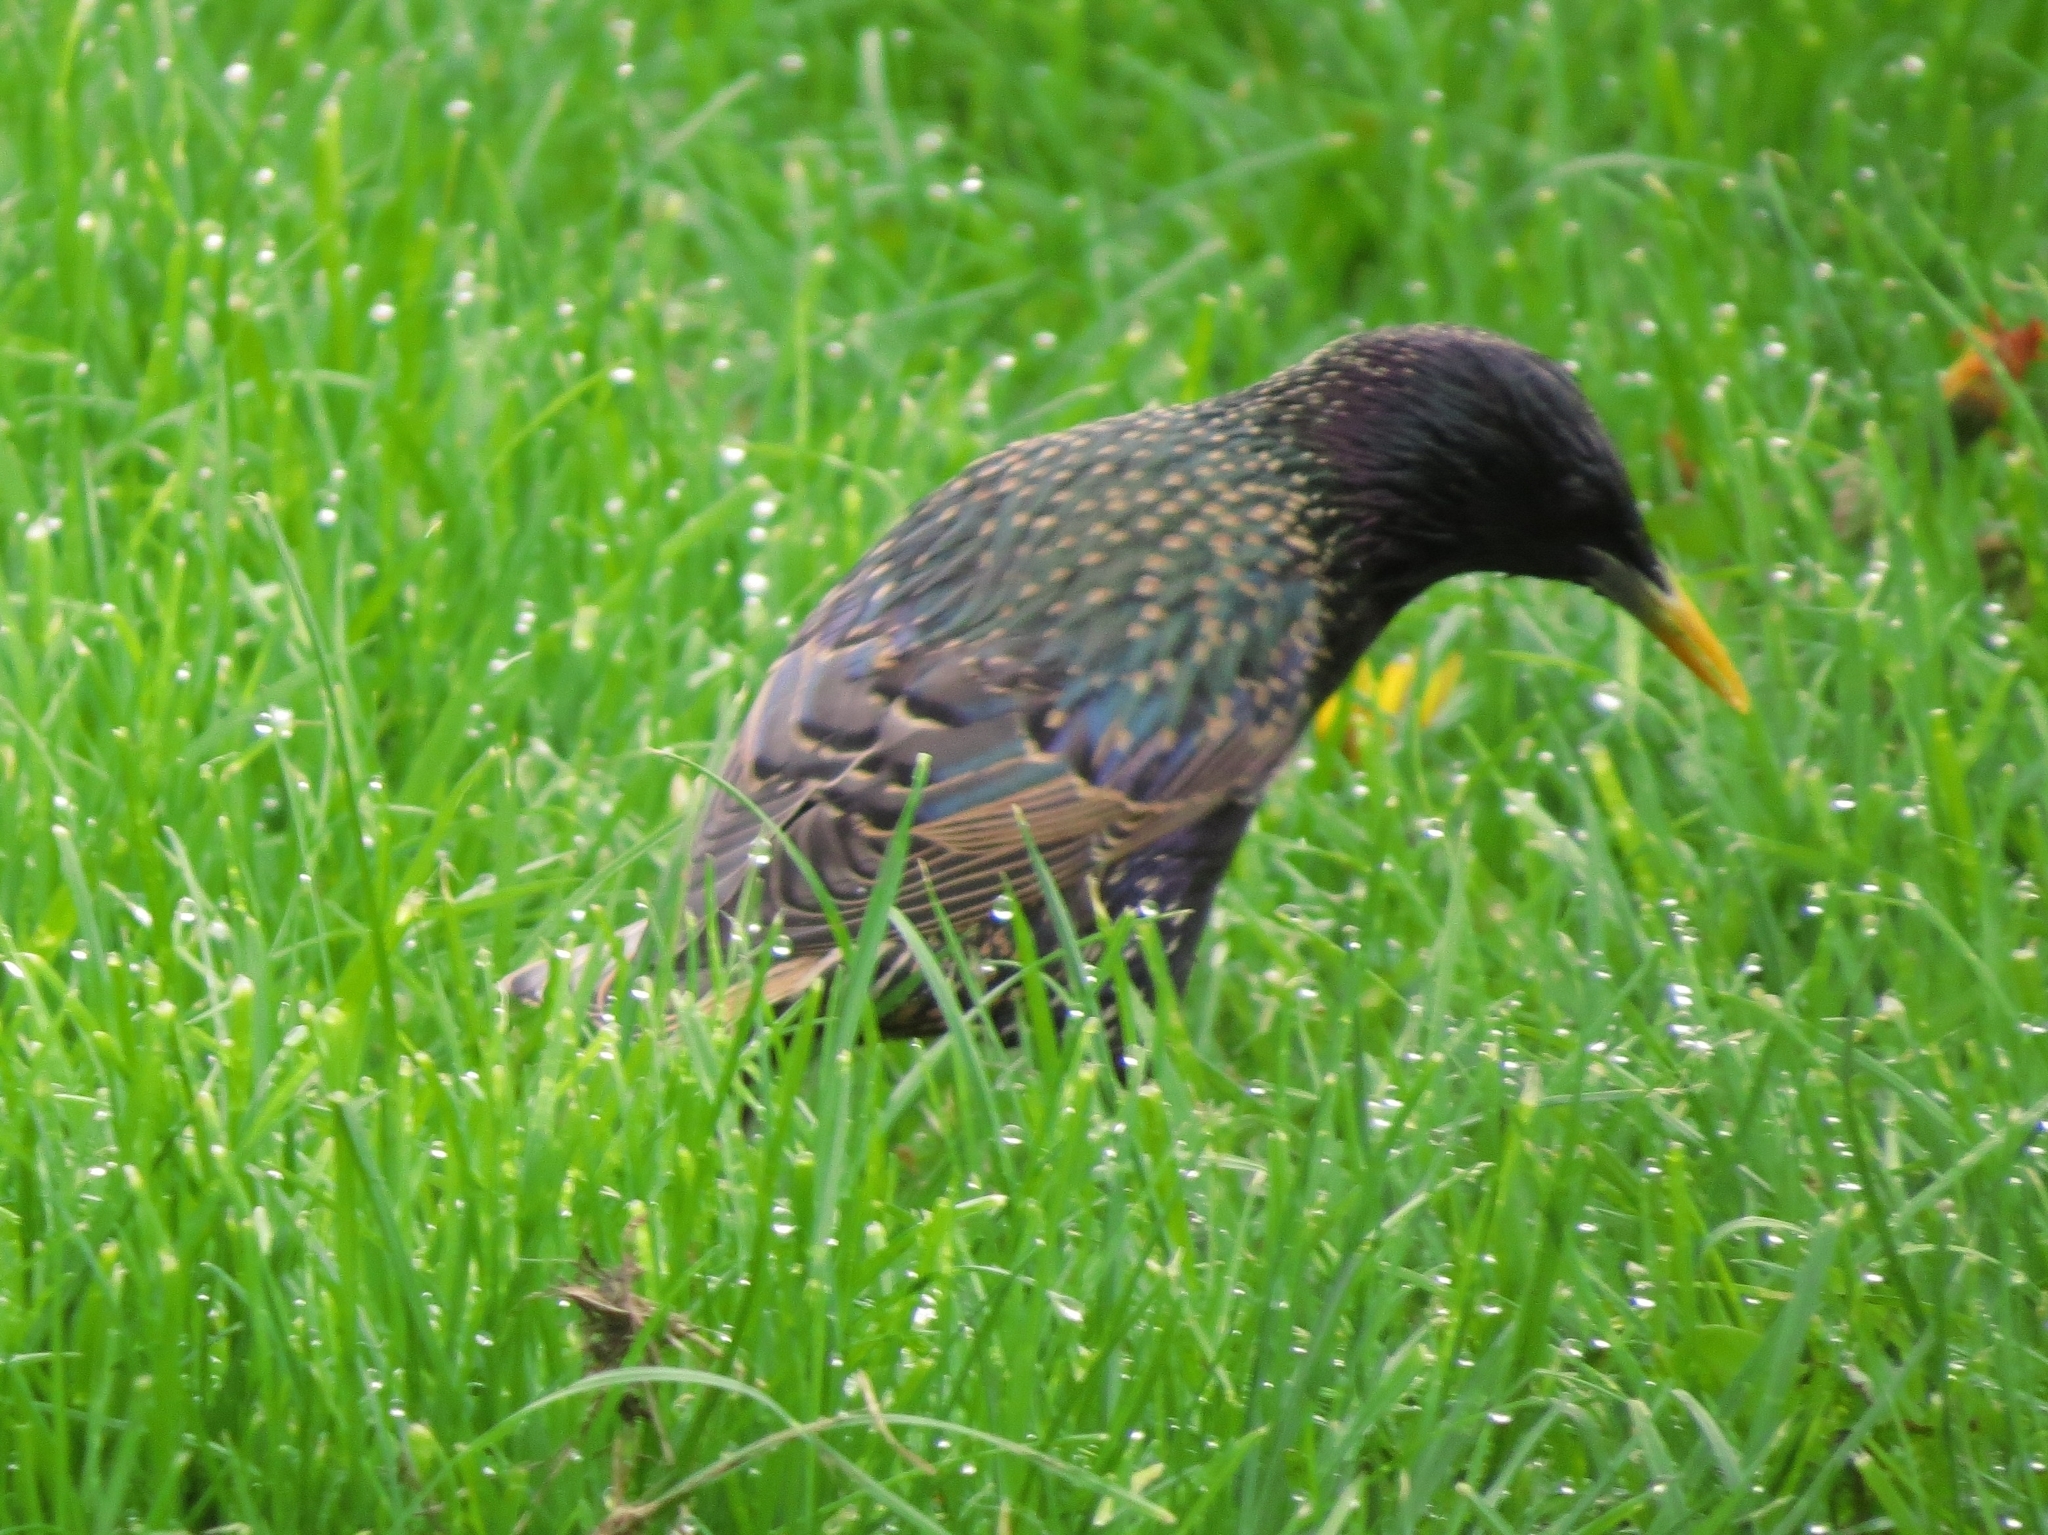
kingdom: Animalia
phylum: Chordata
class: Aves
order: Passeriformes
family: Sturnidae
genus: Sturnus
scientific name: Sturnus vulgaris
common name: Common starling
